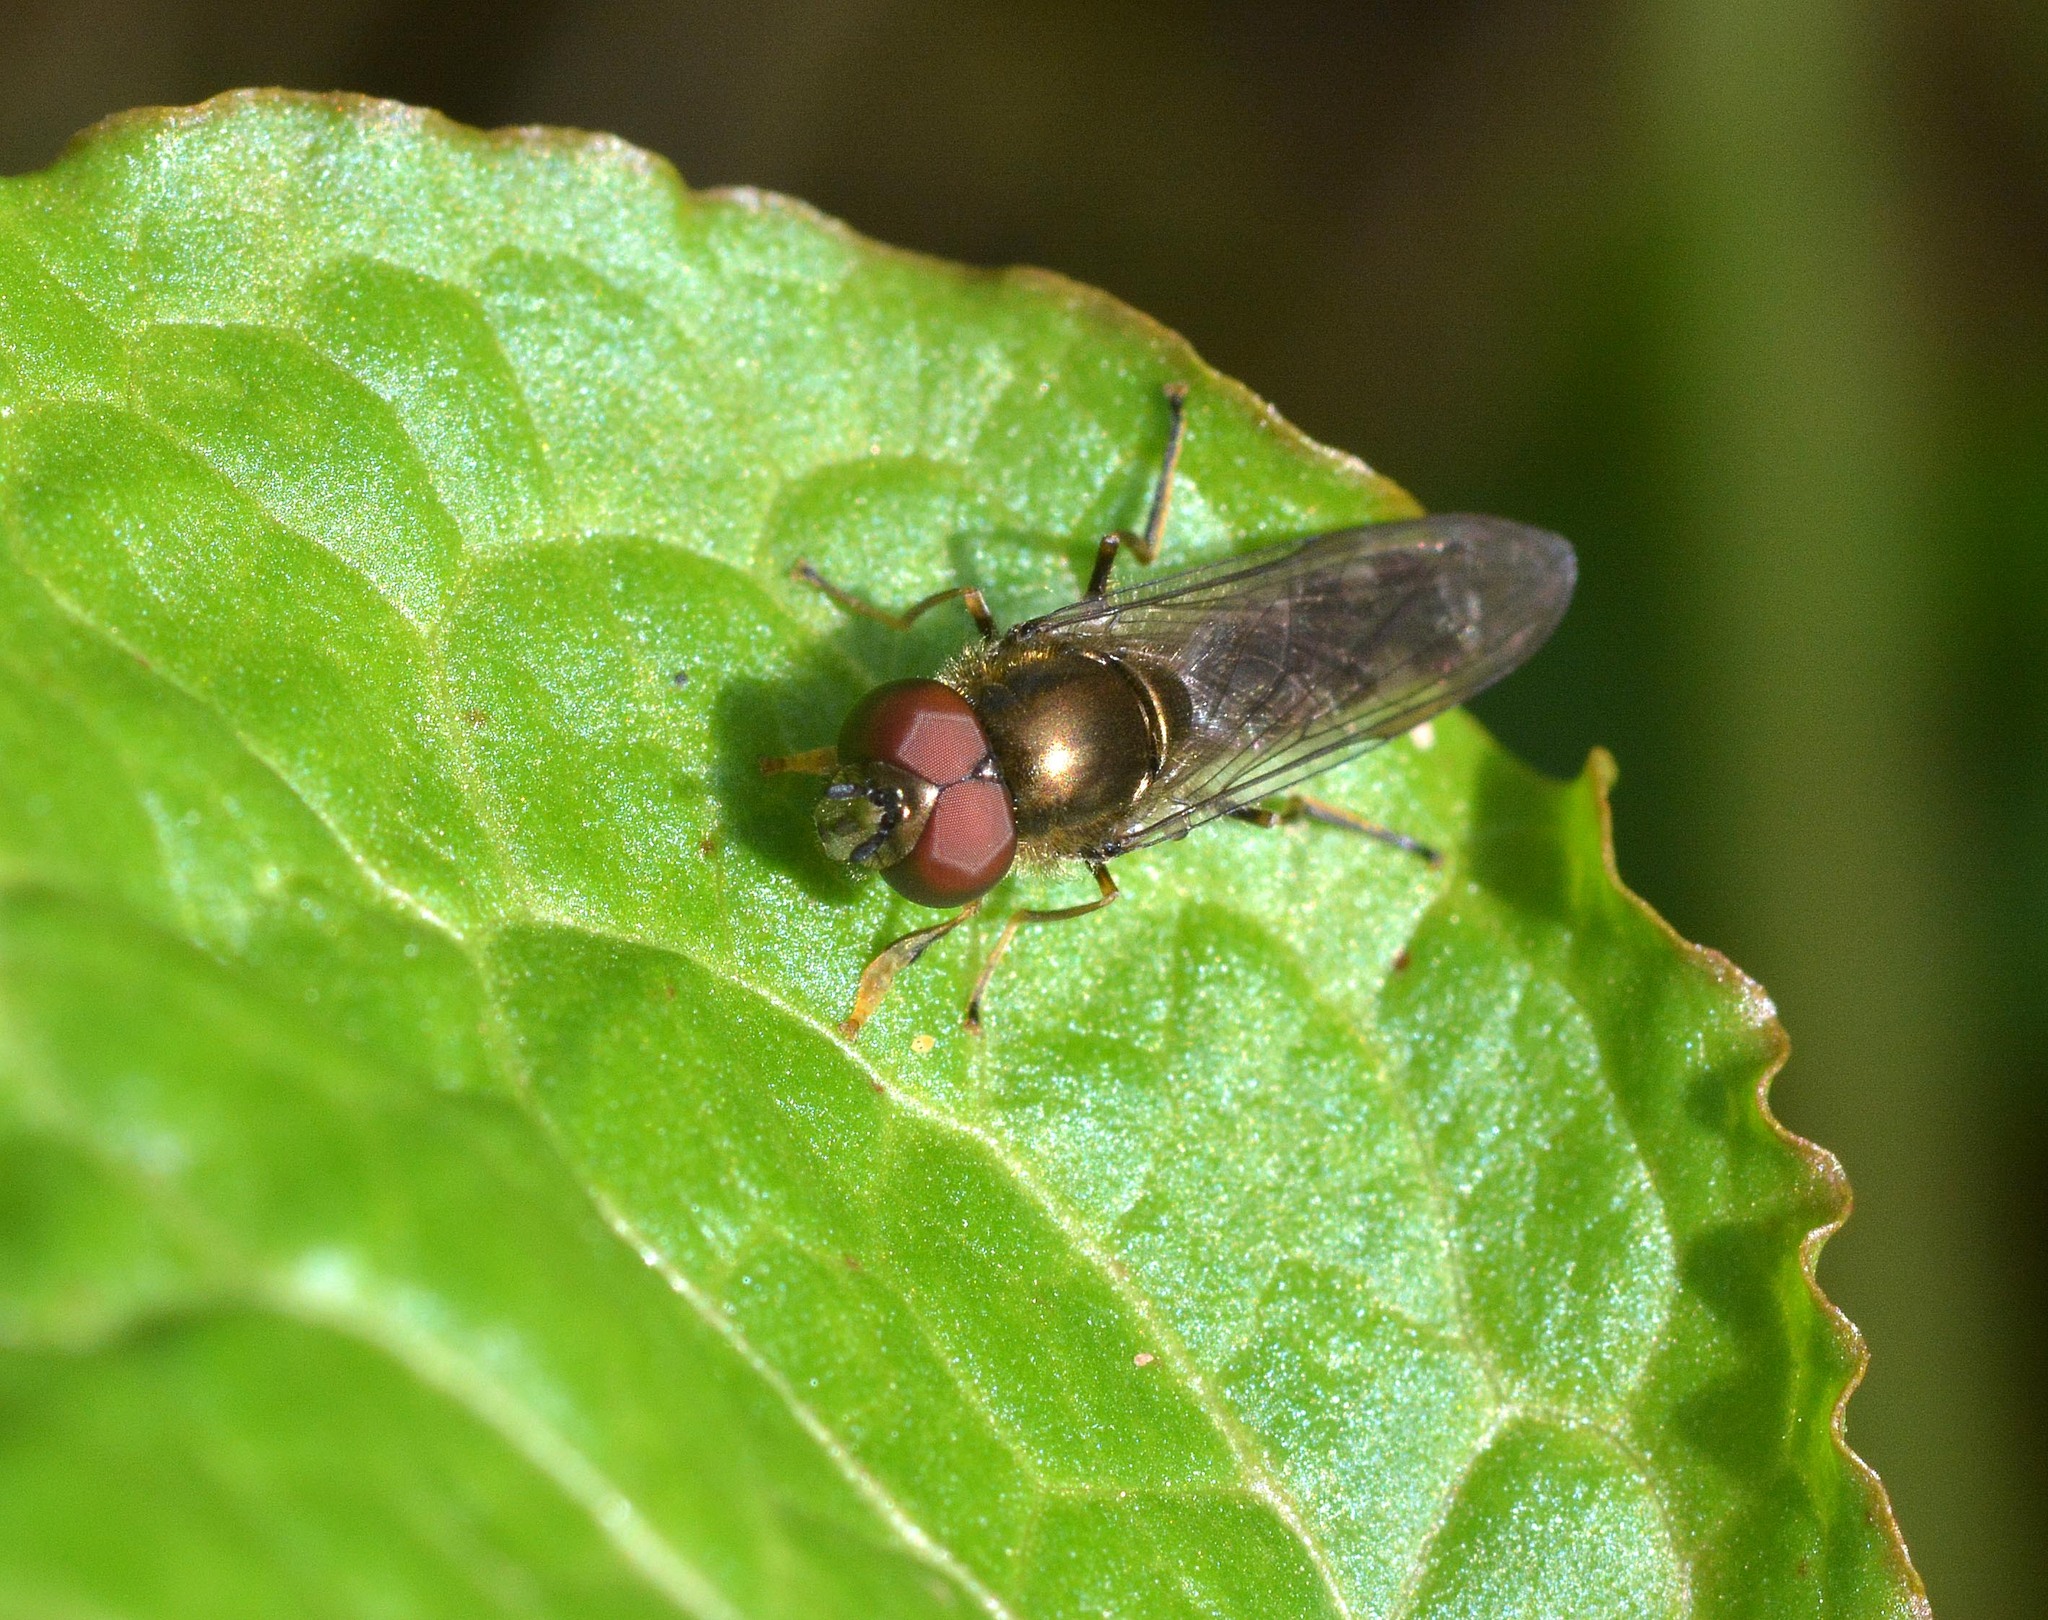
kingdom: Animalia
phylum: Arthropoda
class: Insecta
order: Diptera
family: Syrphidae
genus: Platycheirus
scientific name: Platycheirus albimanus
